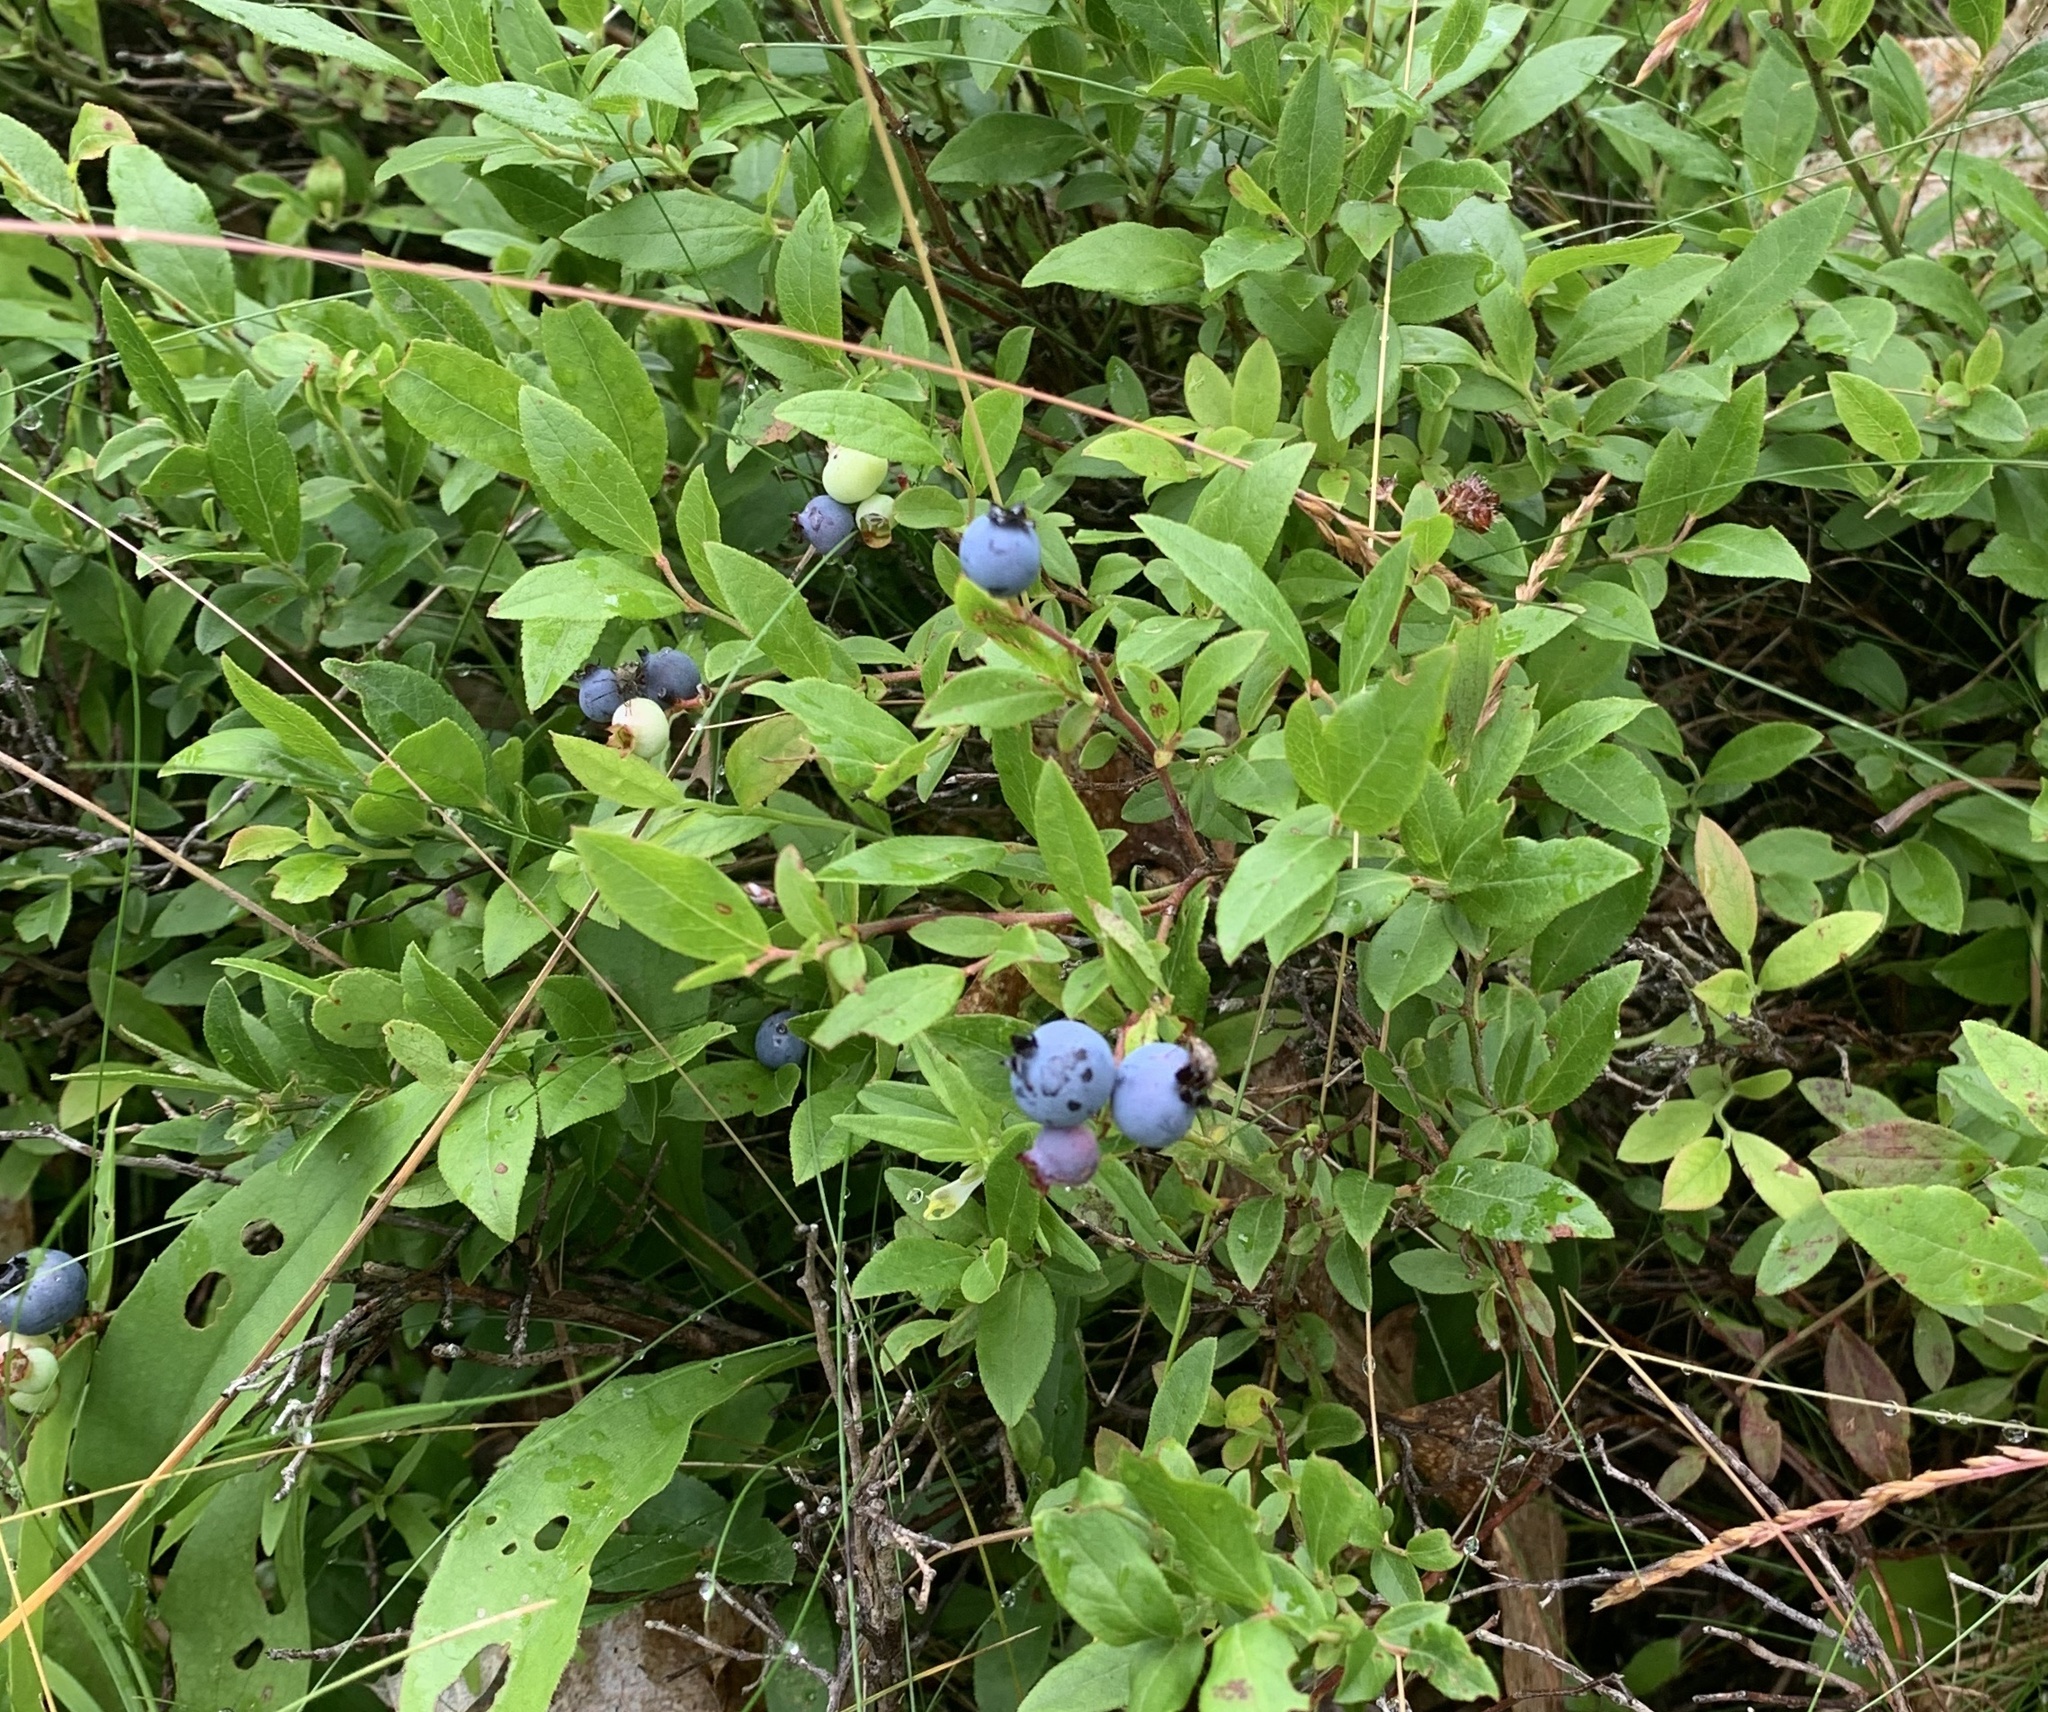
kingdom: Plantae
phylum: Tracheophyta
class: Magnoliopsida
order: Ericales
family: Ericaceae
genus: Vaccinium
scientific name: Vaccinium angustifolium
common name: Early lowbush blueberry
